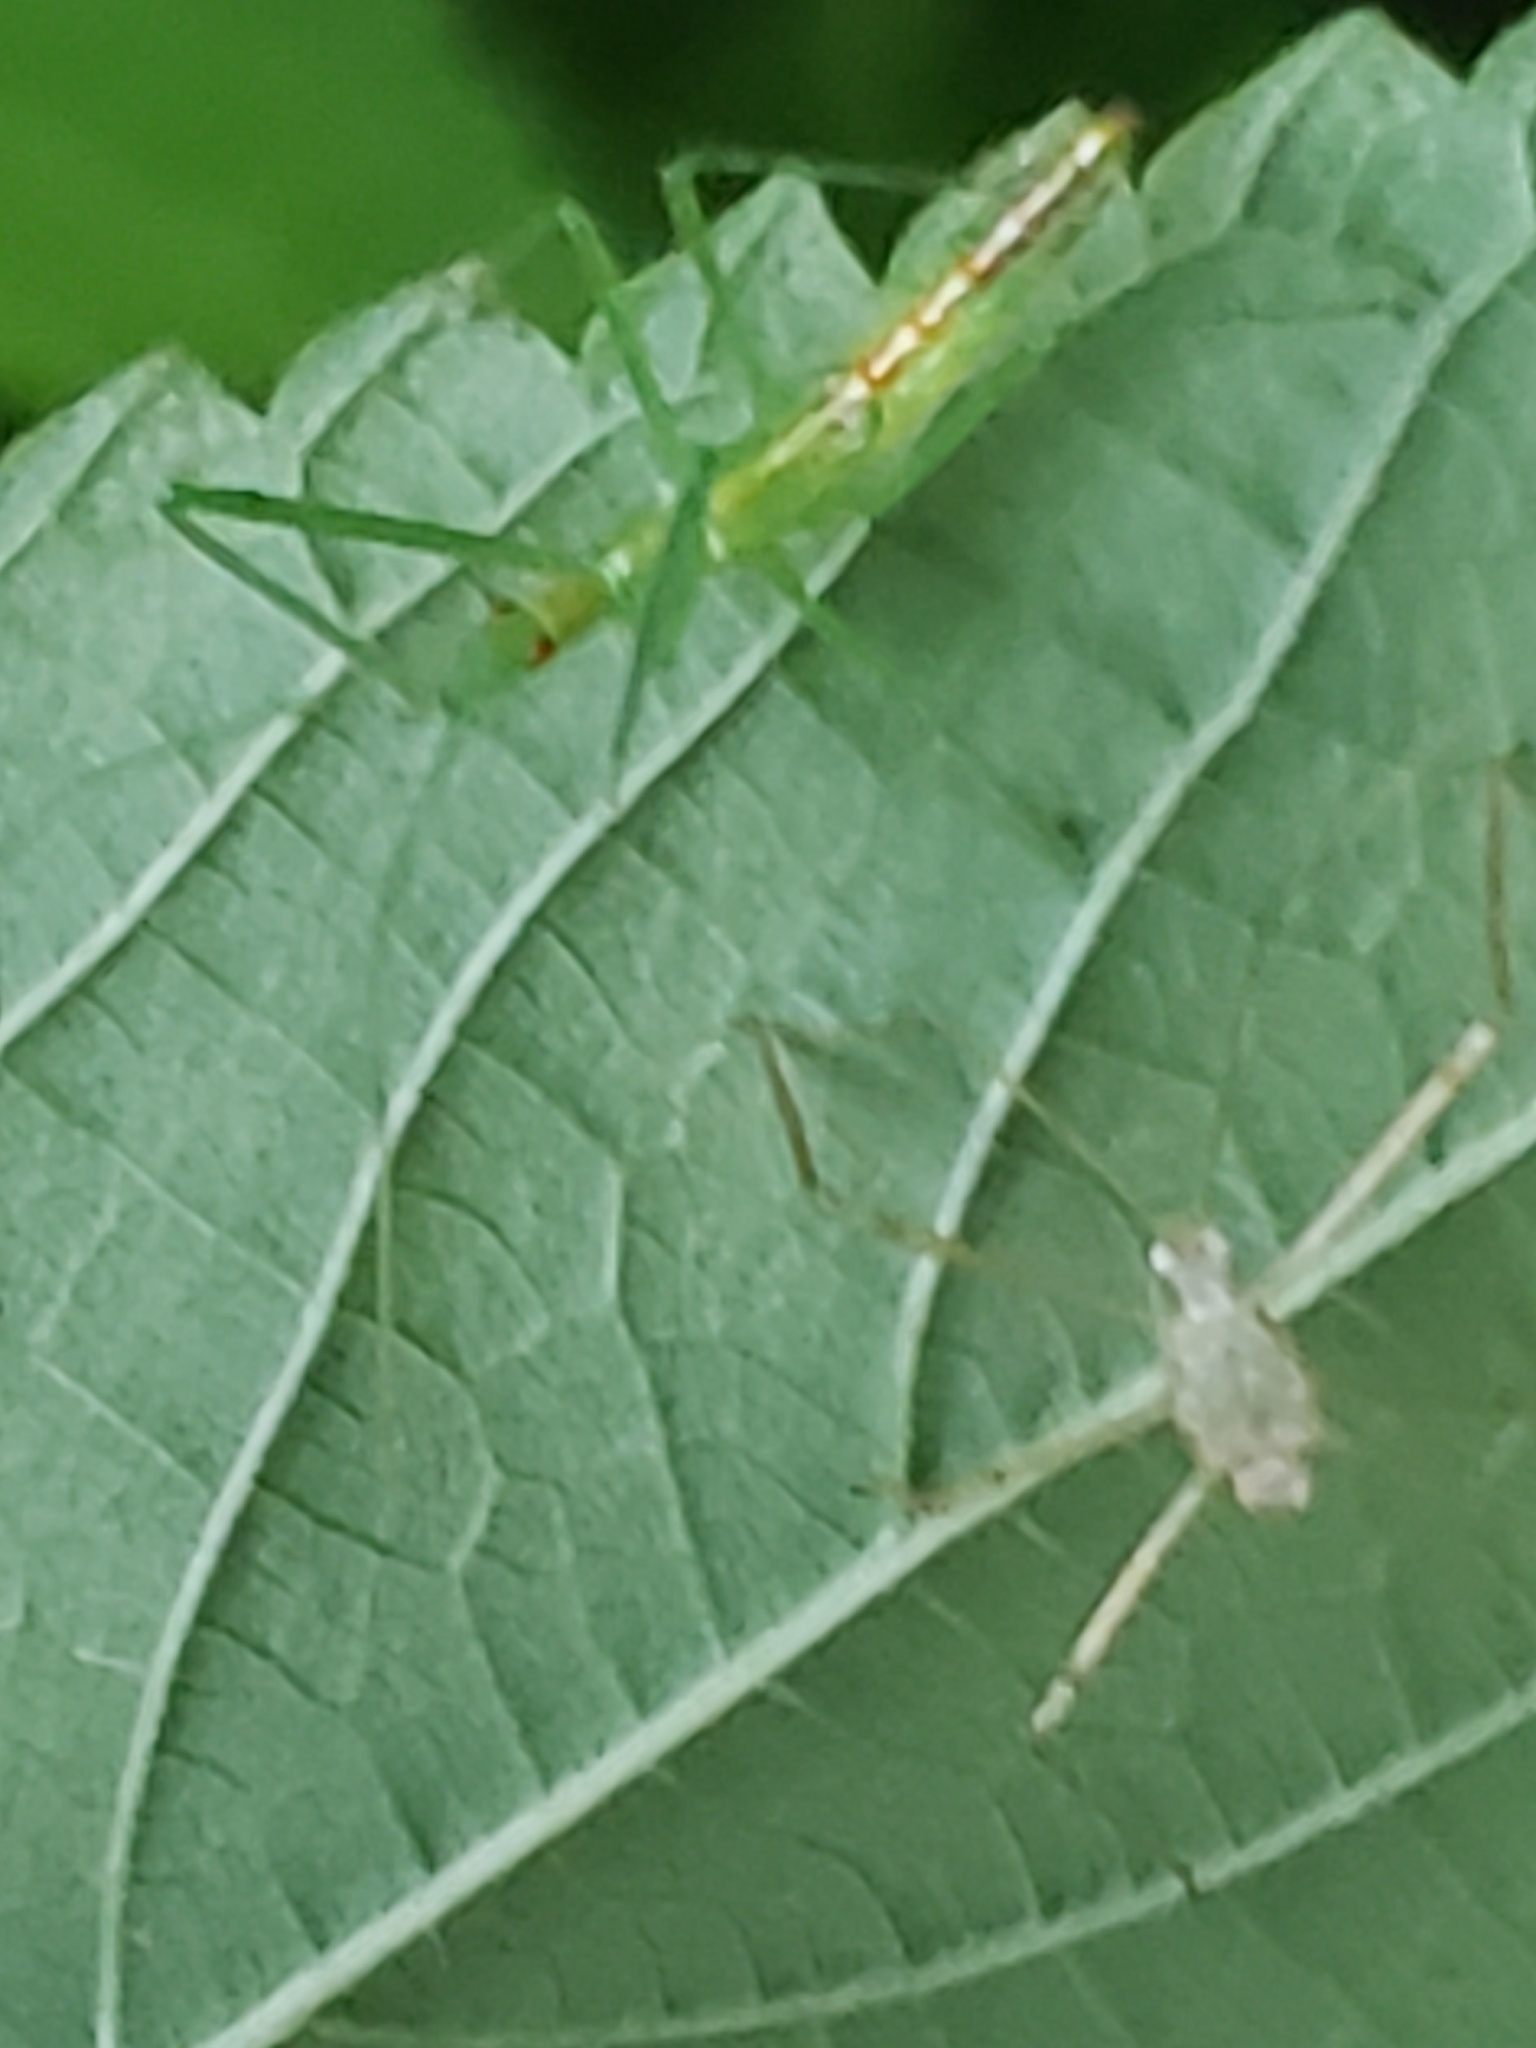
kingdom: Animalia
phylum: Arthropoda
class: Insecta
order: Hemiptera
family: Reduviidae
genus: Zelus
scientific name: Zelus luridus
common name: Pale green assassin bug
